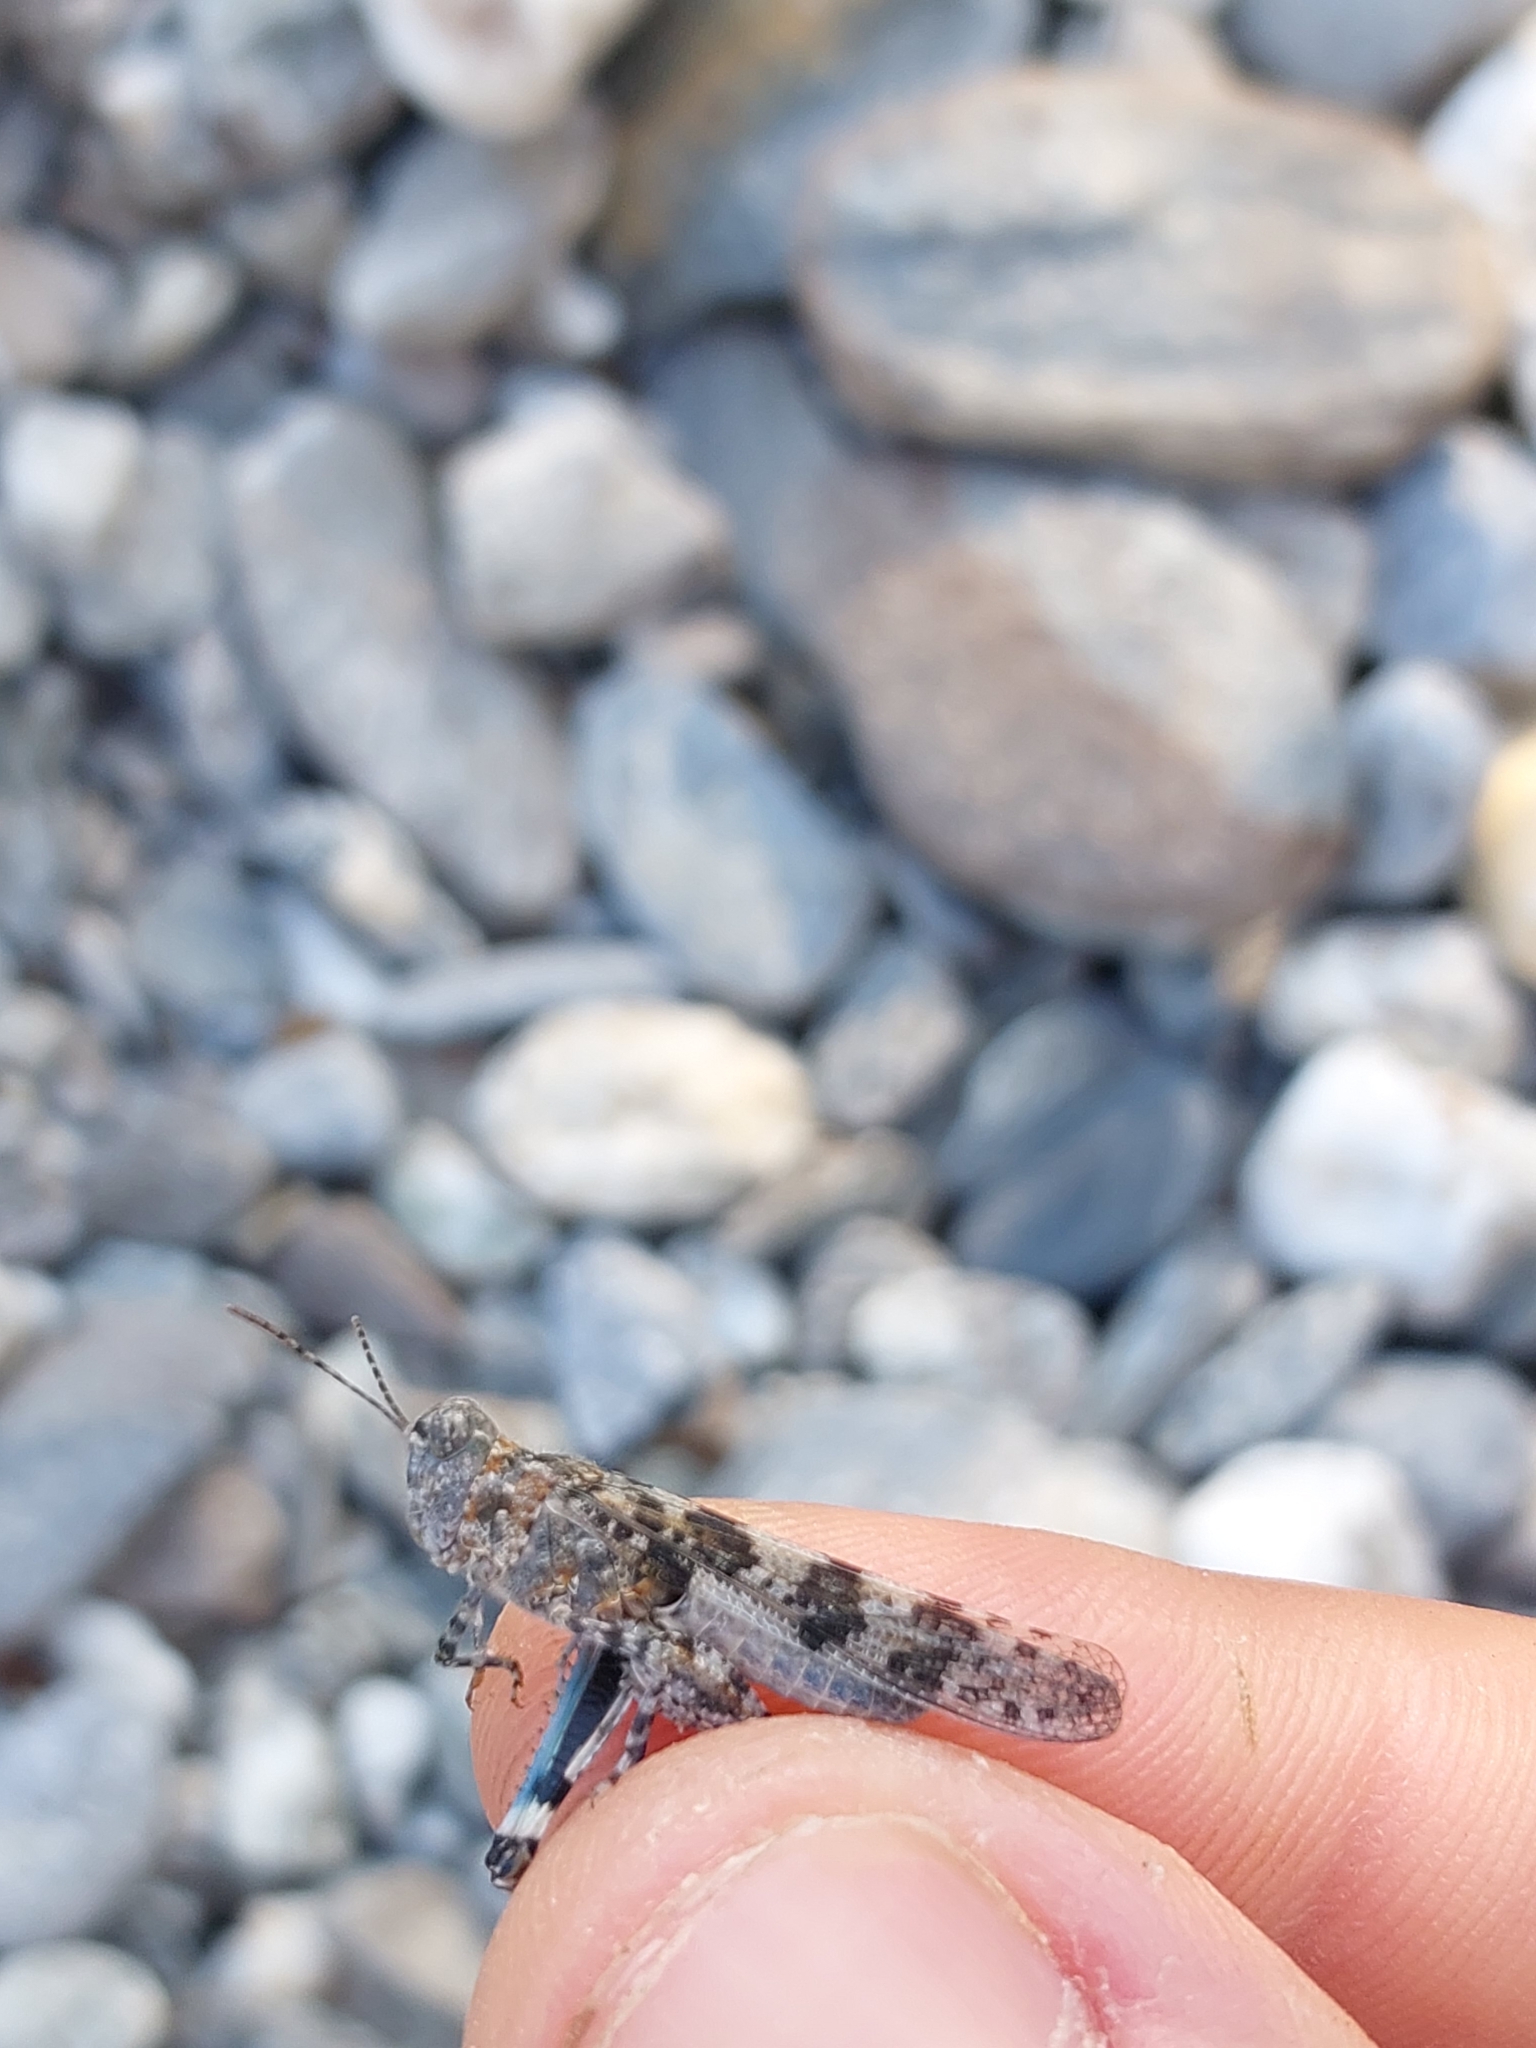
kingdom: Animalia
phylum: Arthropoda
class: Insecta
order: Orthoptera
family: Acrididae
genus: Sphingonotus
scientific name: Sphingonotus caerulans
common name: Blue-winged locust
